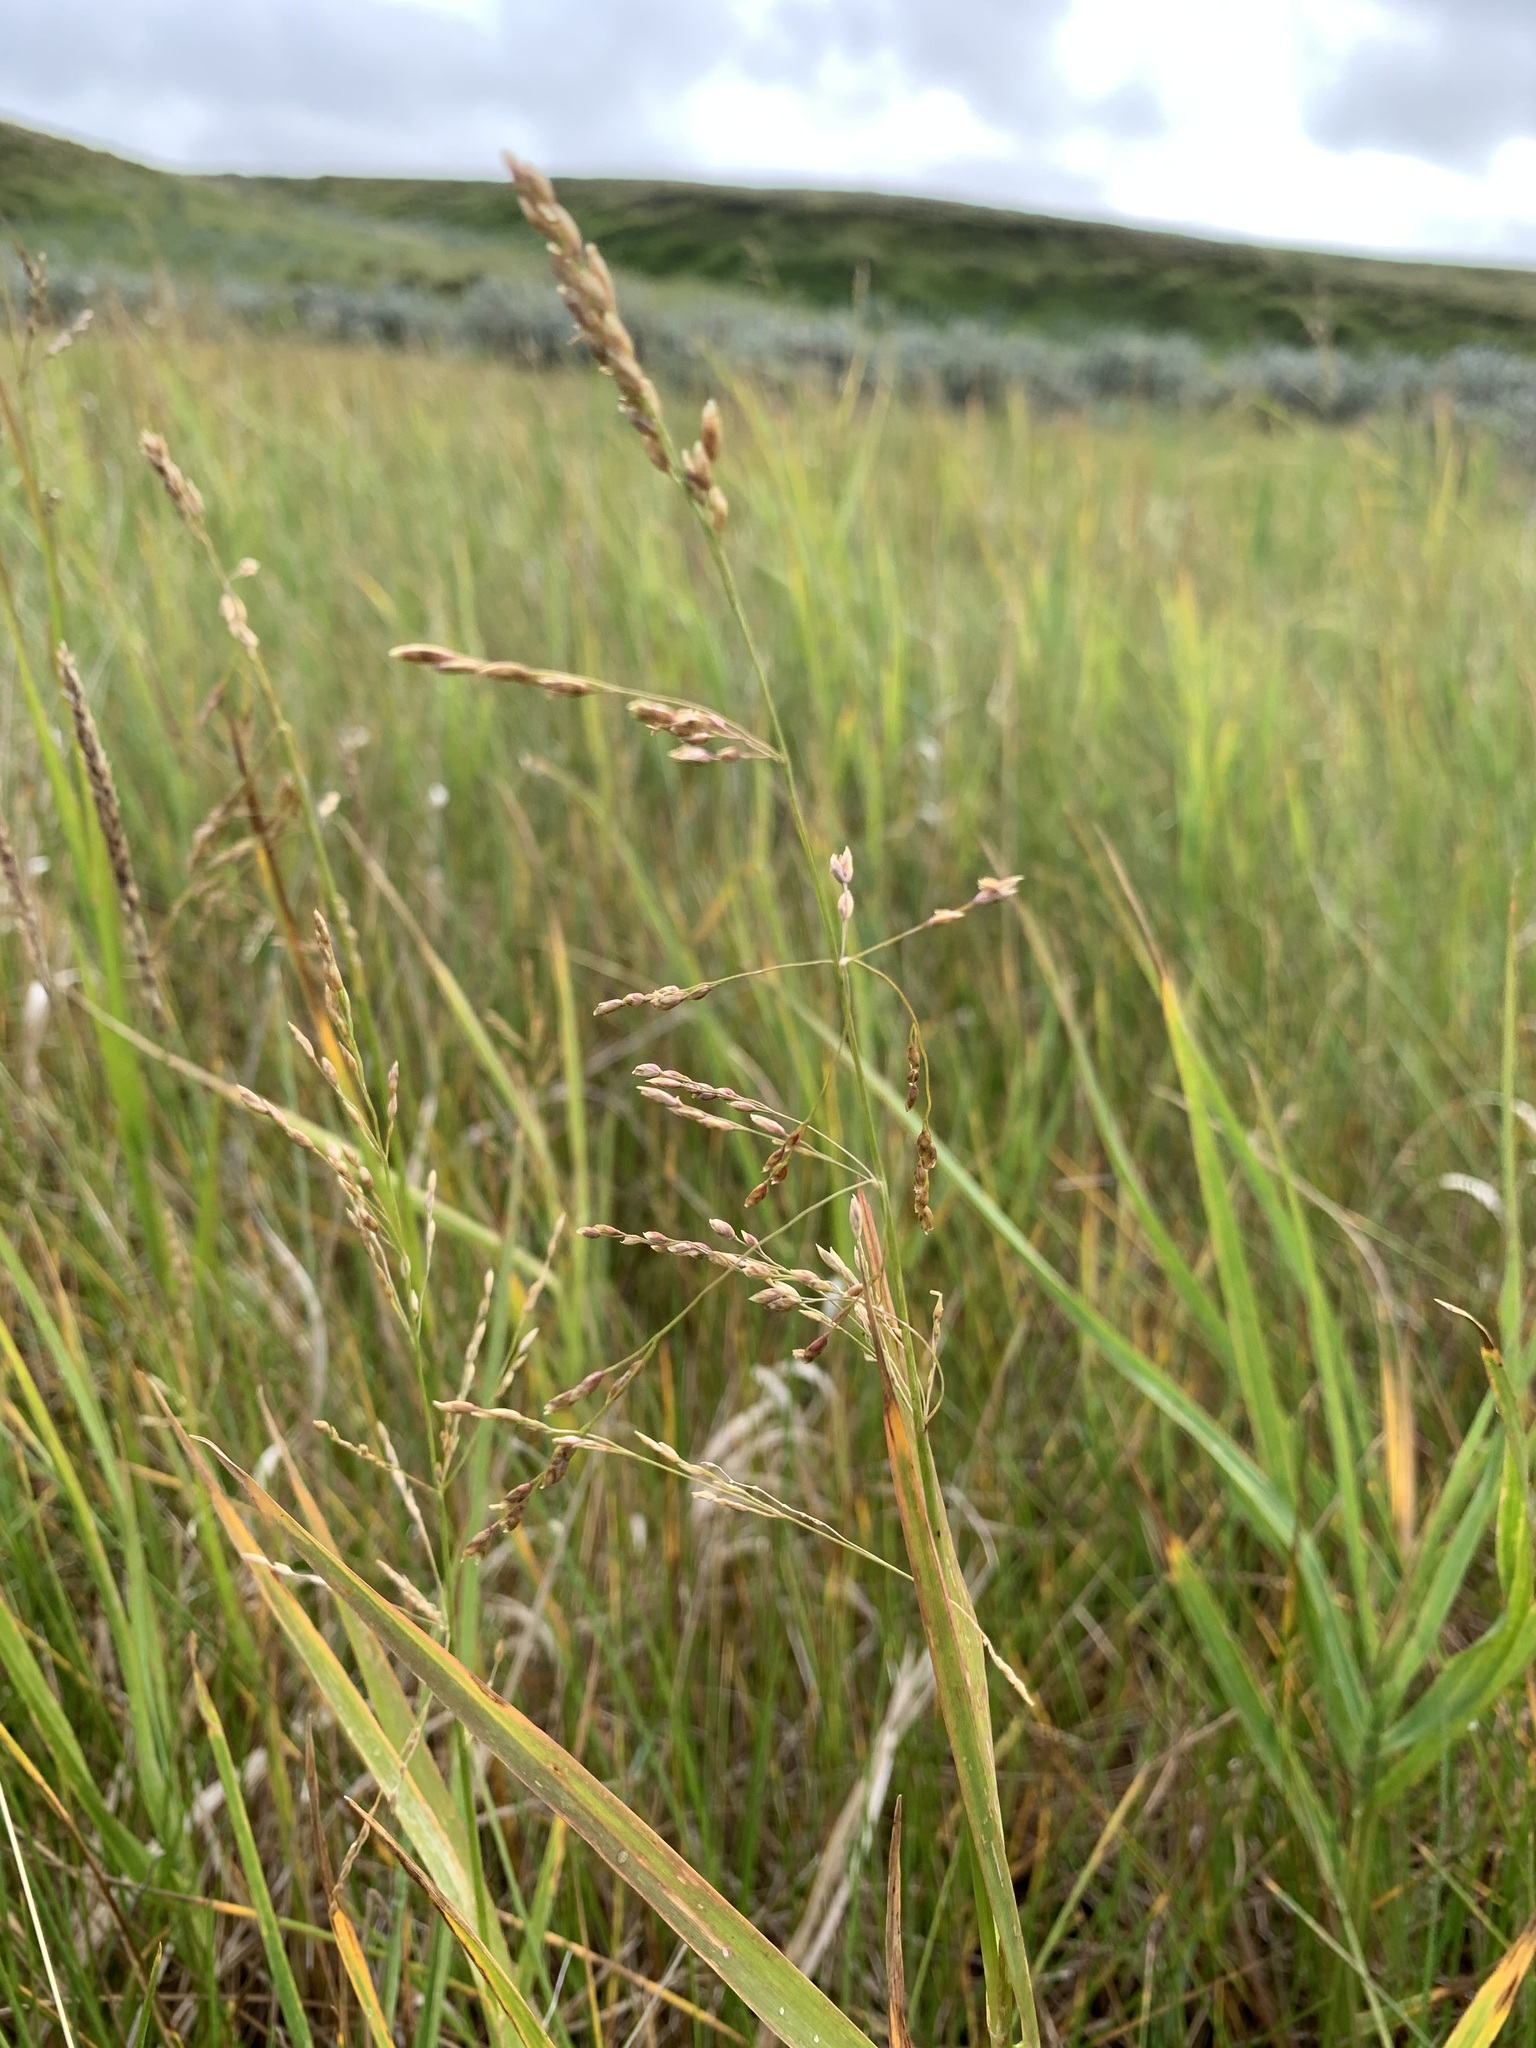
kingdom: Plantae
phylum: Tracheophyta
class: Liliopsida
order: Poales
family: Poaceae
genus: Dupontia
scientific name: Dupontia fulva
